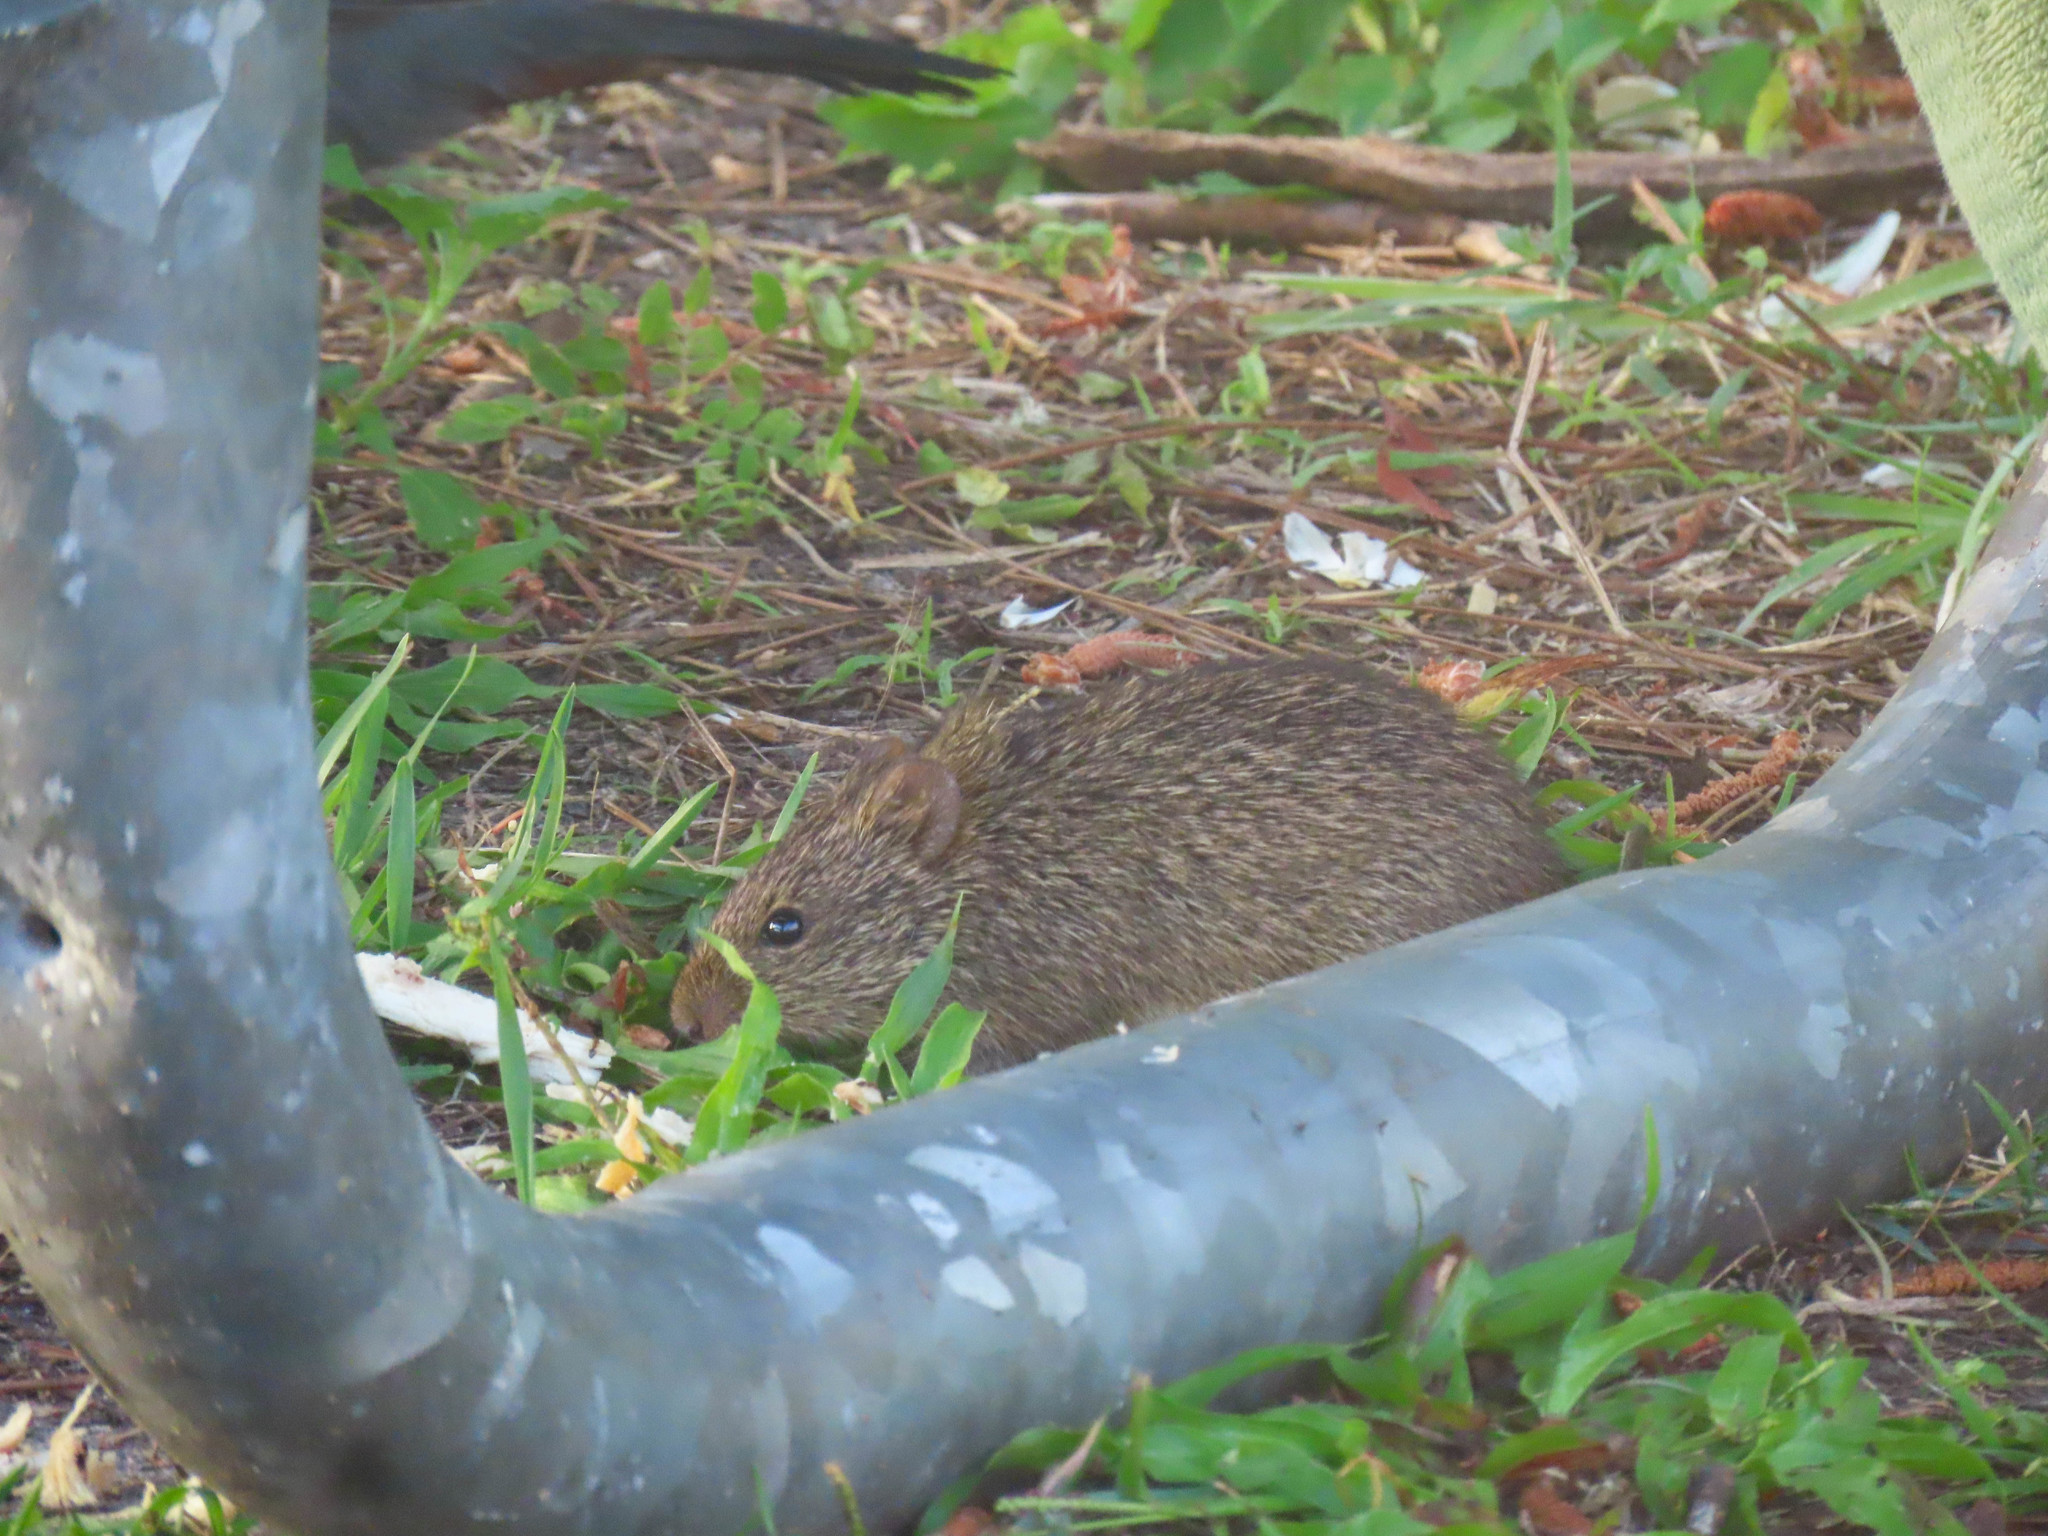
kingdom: Animalia
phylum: Chordata
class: Mammalia
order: Rodentia
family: Cricetidae
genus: Sigmodon
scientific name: Sigmodon hispidus
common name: Hispid cotton rat
